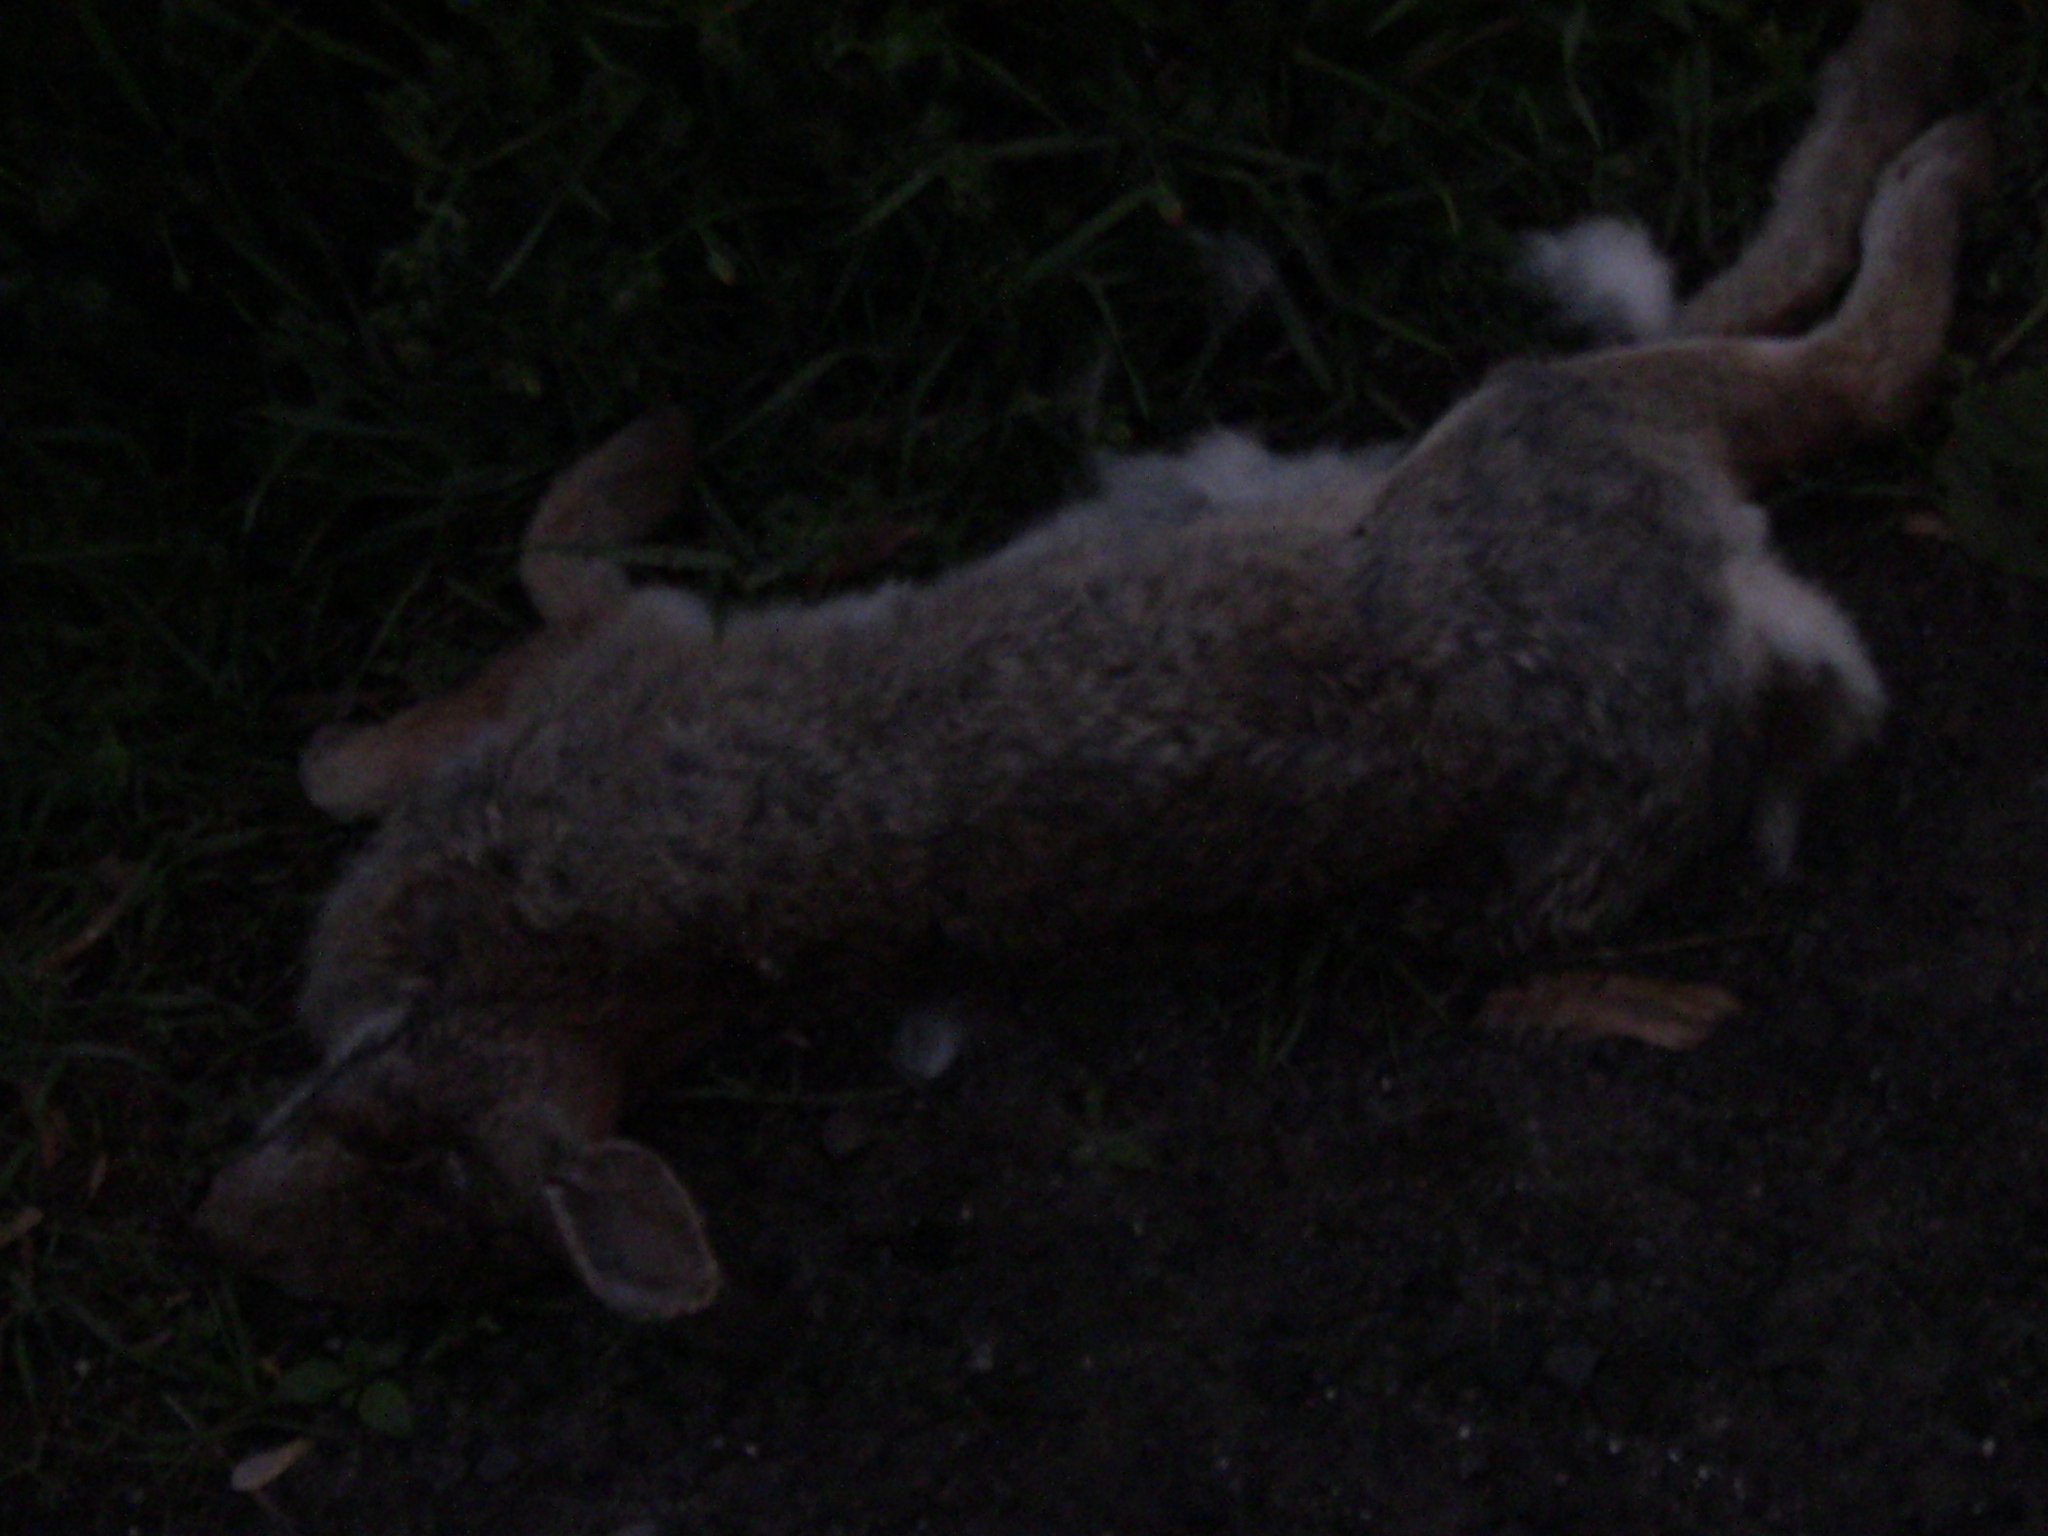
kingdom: Animalia
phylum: Chordata
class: Mammalia
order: Lagomorpha
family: Leporidae
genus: Sylvilagus
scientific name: Sylvilagus floridanus
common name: Eastern cottontail
